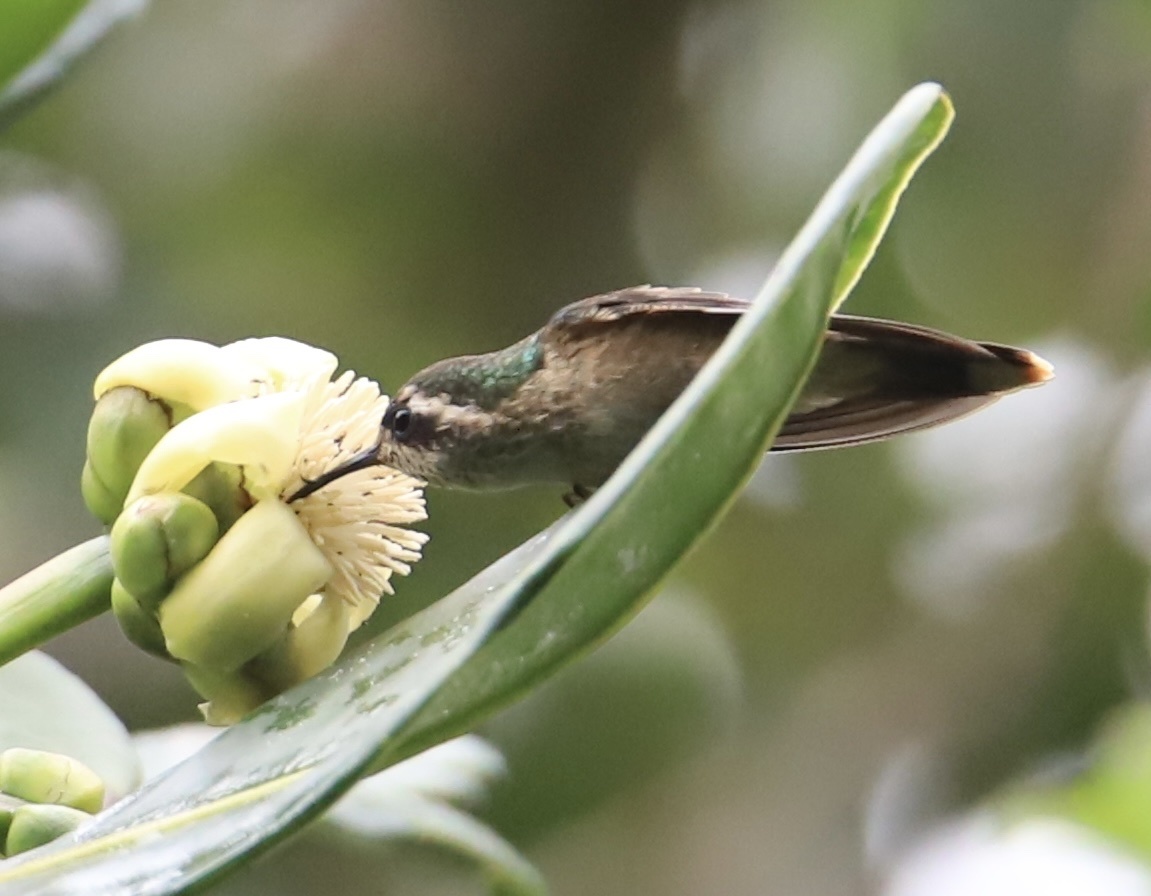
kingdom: Animalia
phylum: Chordata
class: Aves
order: Apodiformes
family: Trochilidae
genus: Adelomyia
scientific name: Adelomyia melanogenys
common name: Speckled hummingbird
